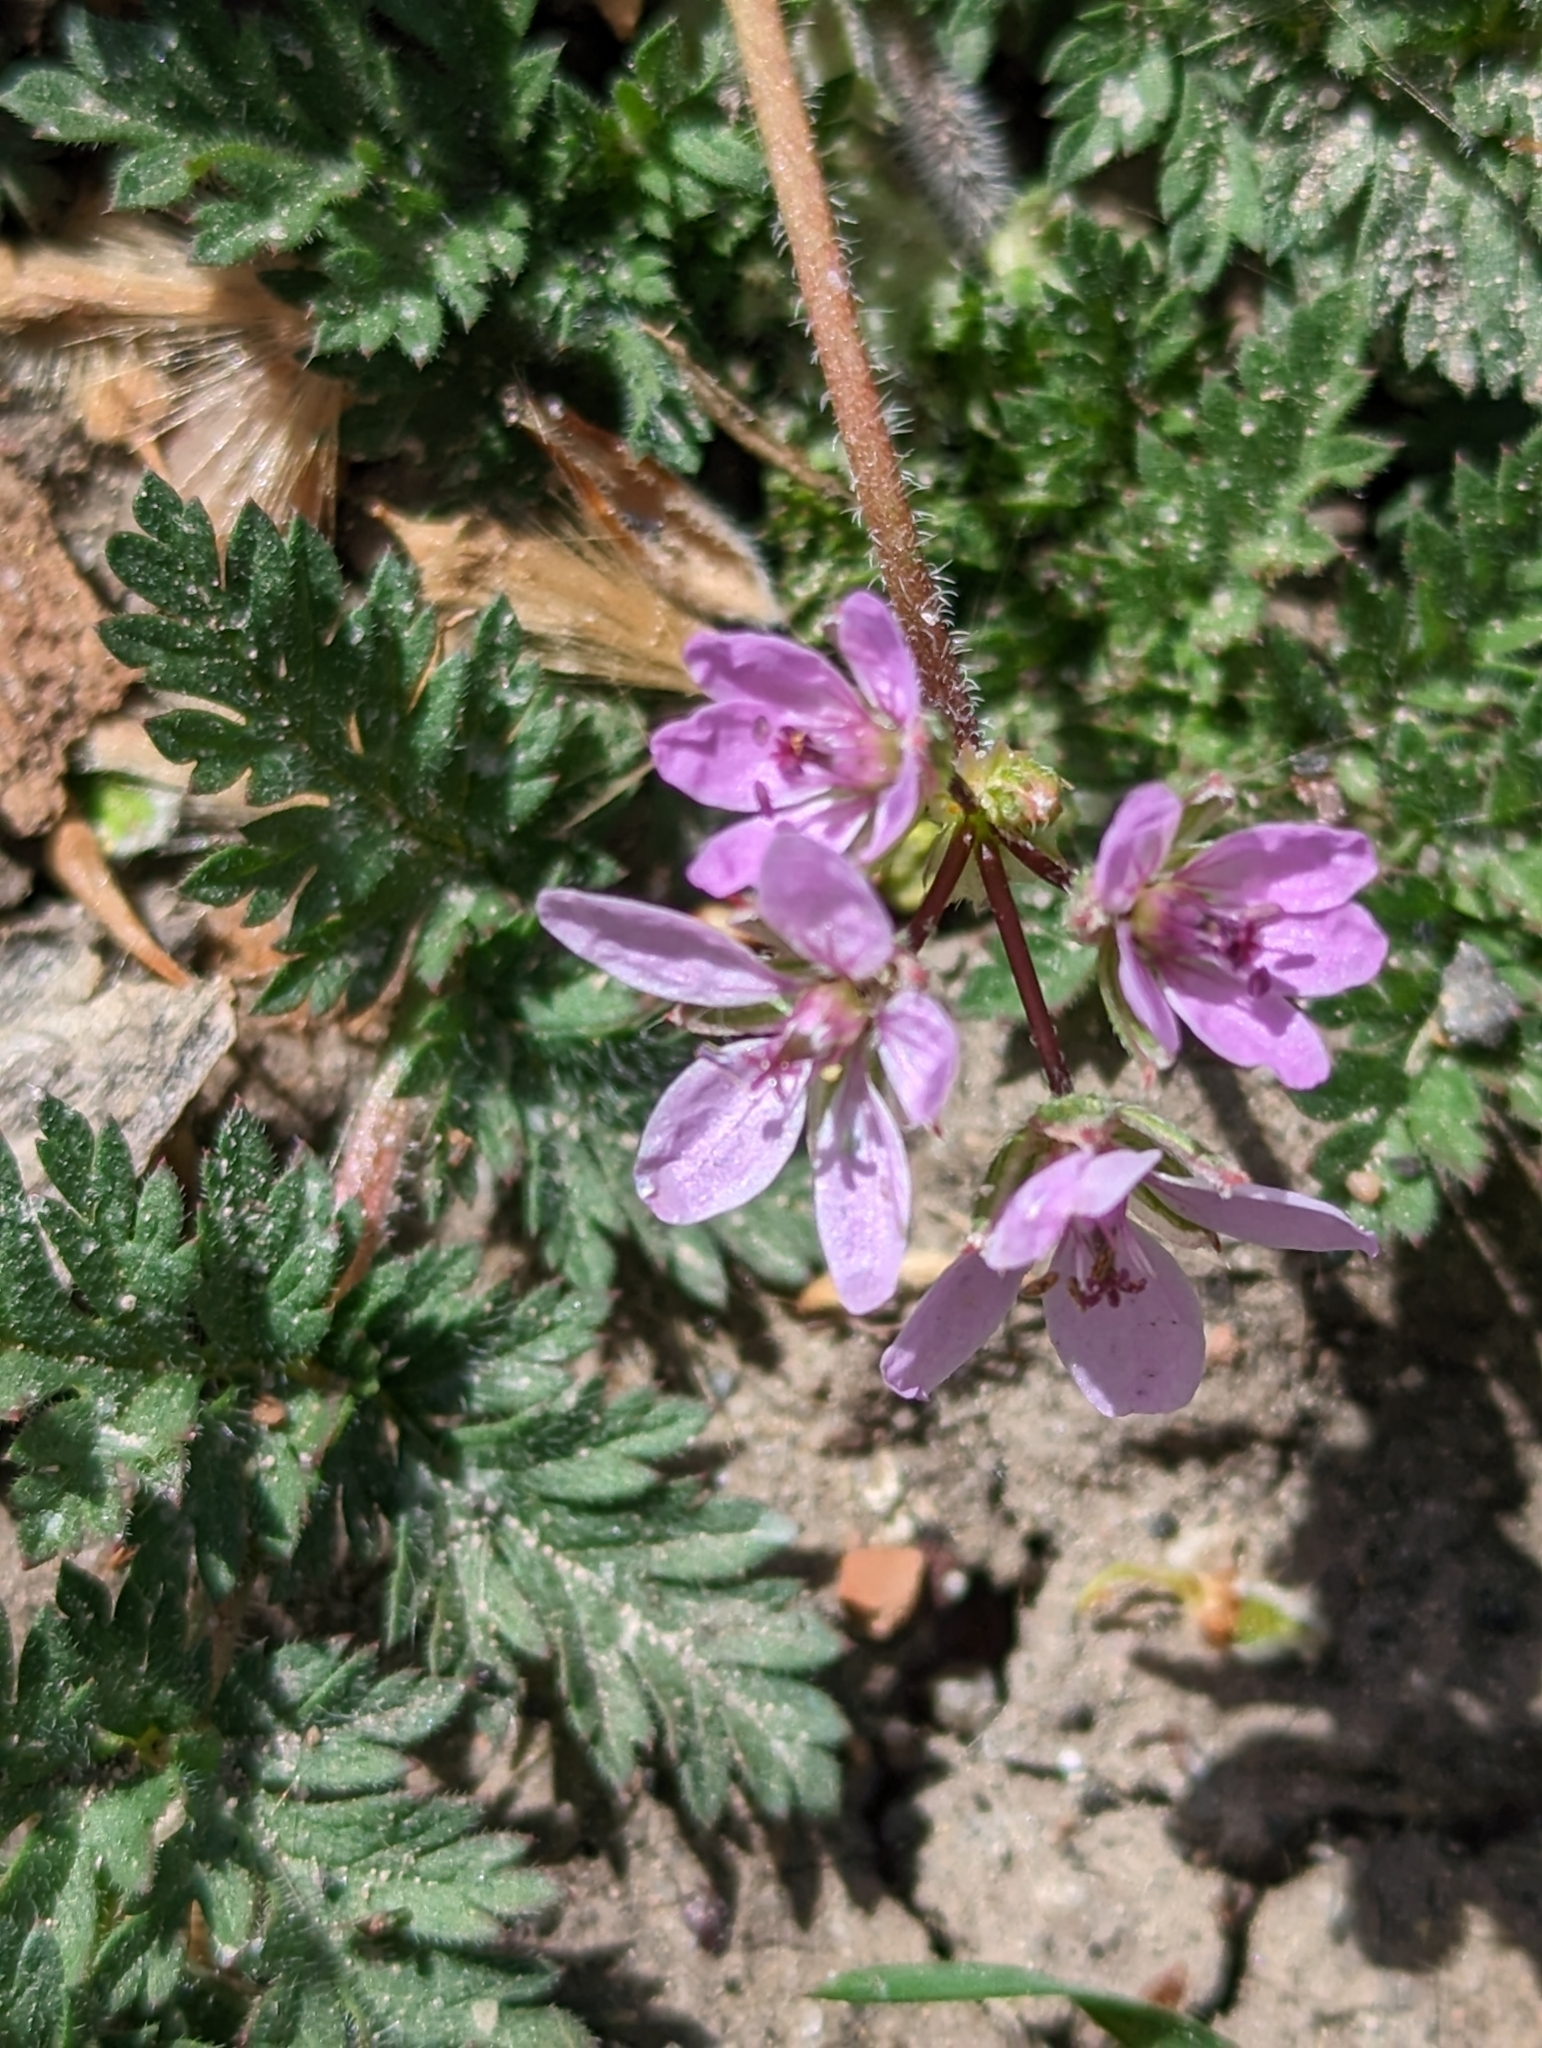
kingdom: Plantae
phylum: Tracheophyta
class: Magnoliopsida
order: Geraniales
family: Geraniaceae
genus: Erodium
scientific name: Erodium cicutarium
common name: Common stork's-bill
